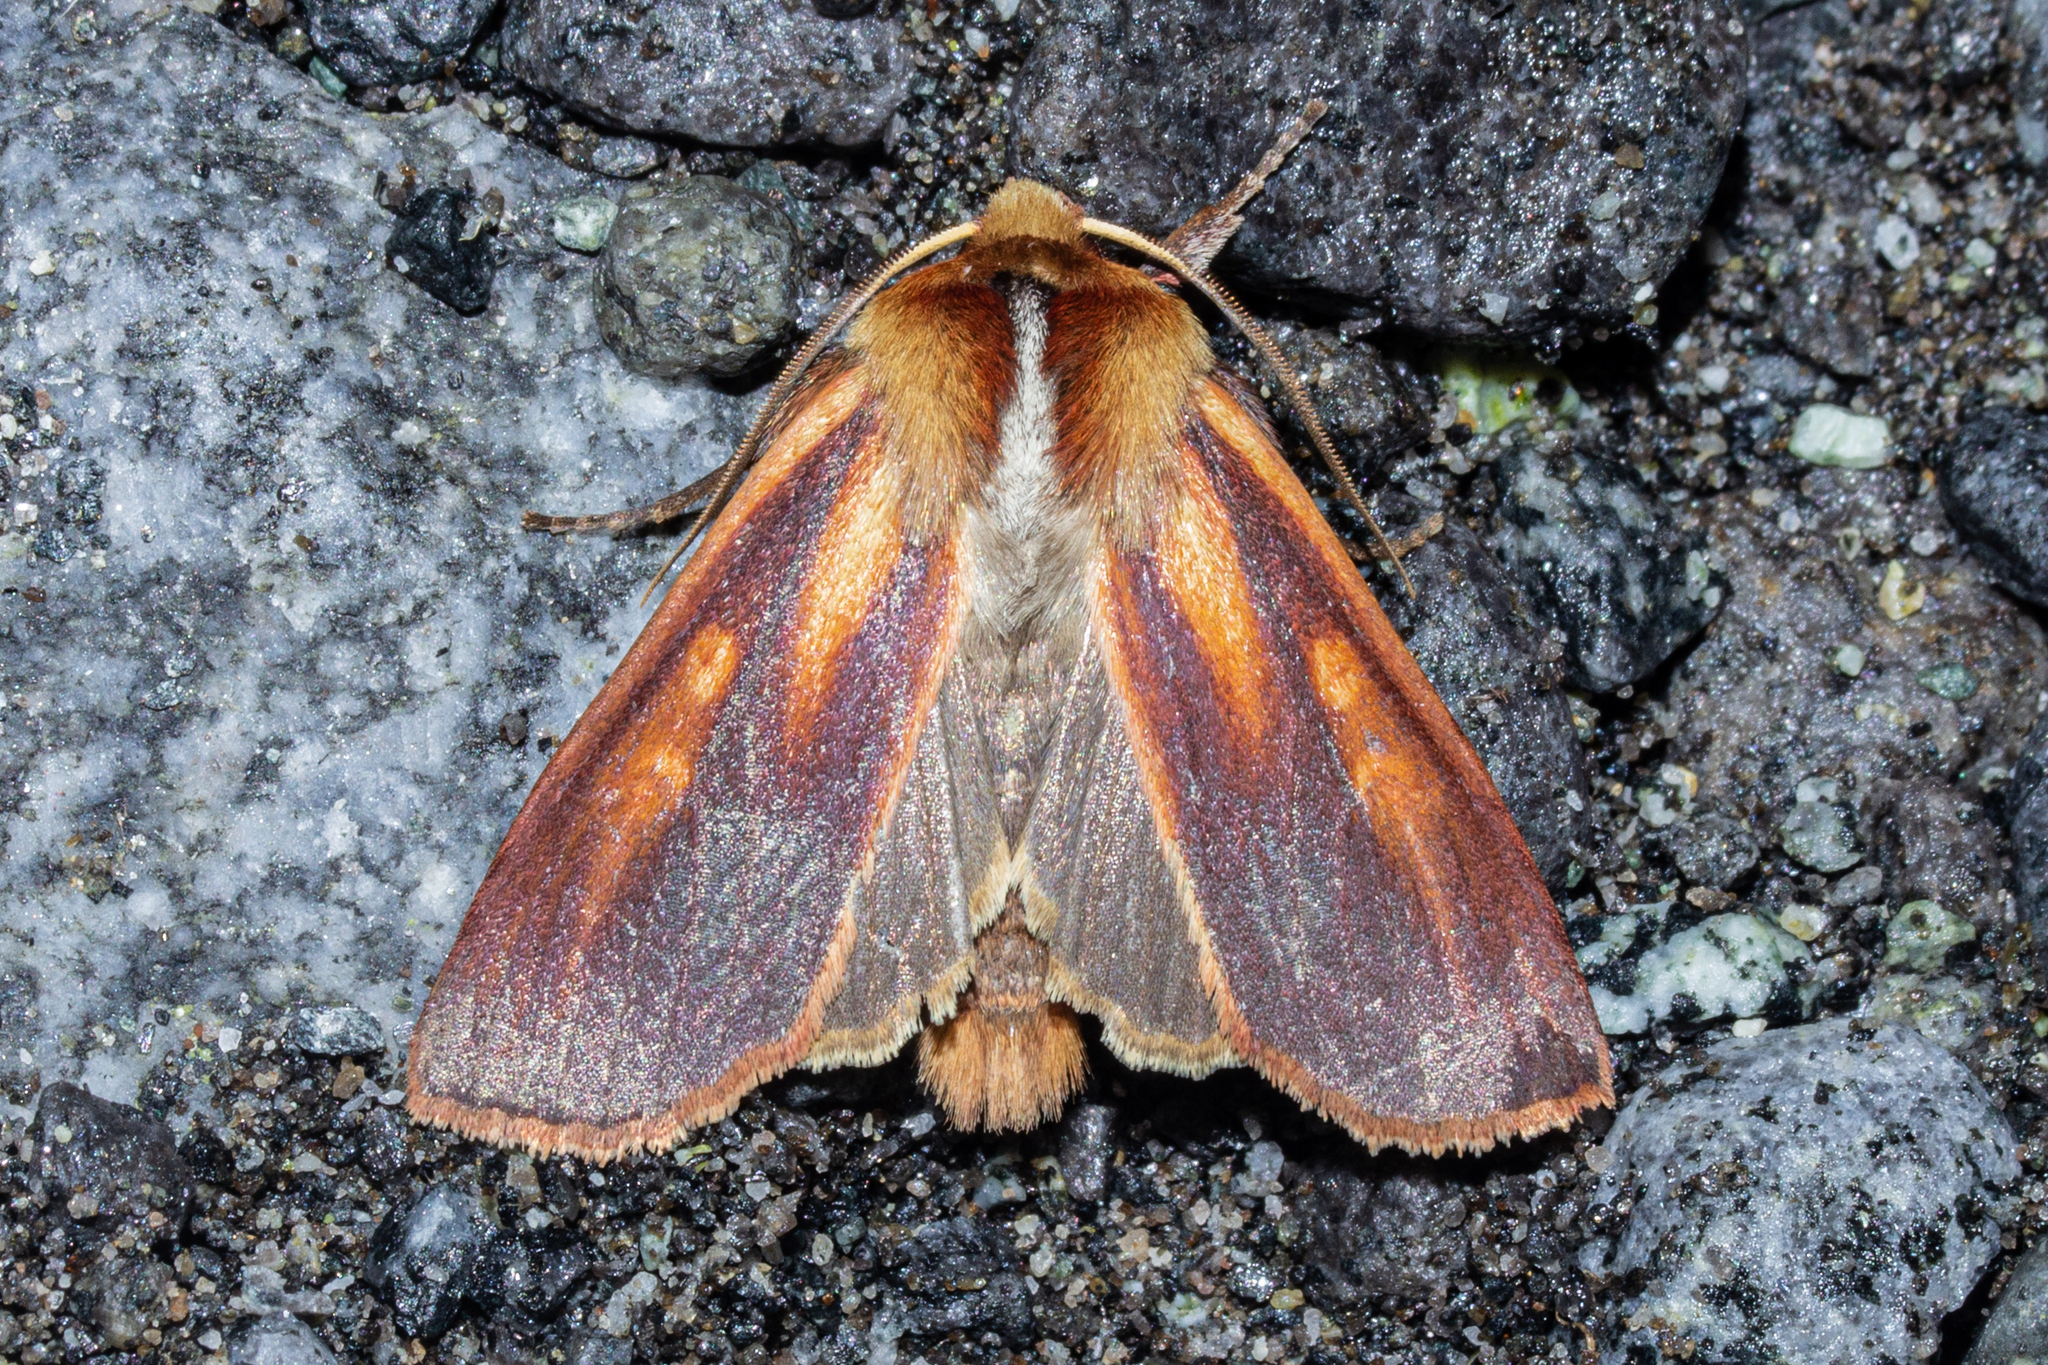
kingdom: Animalia
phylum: Arthropoda
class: Insecta
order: Lepidoptera
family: Noctuidae
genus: Ichneutica
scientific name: Ichneutica
